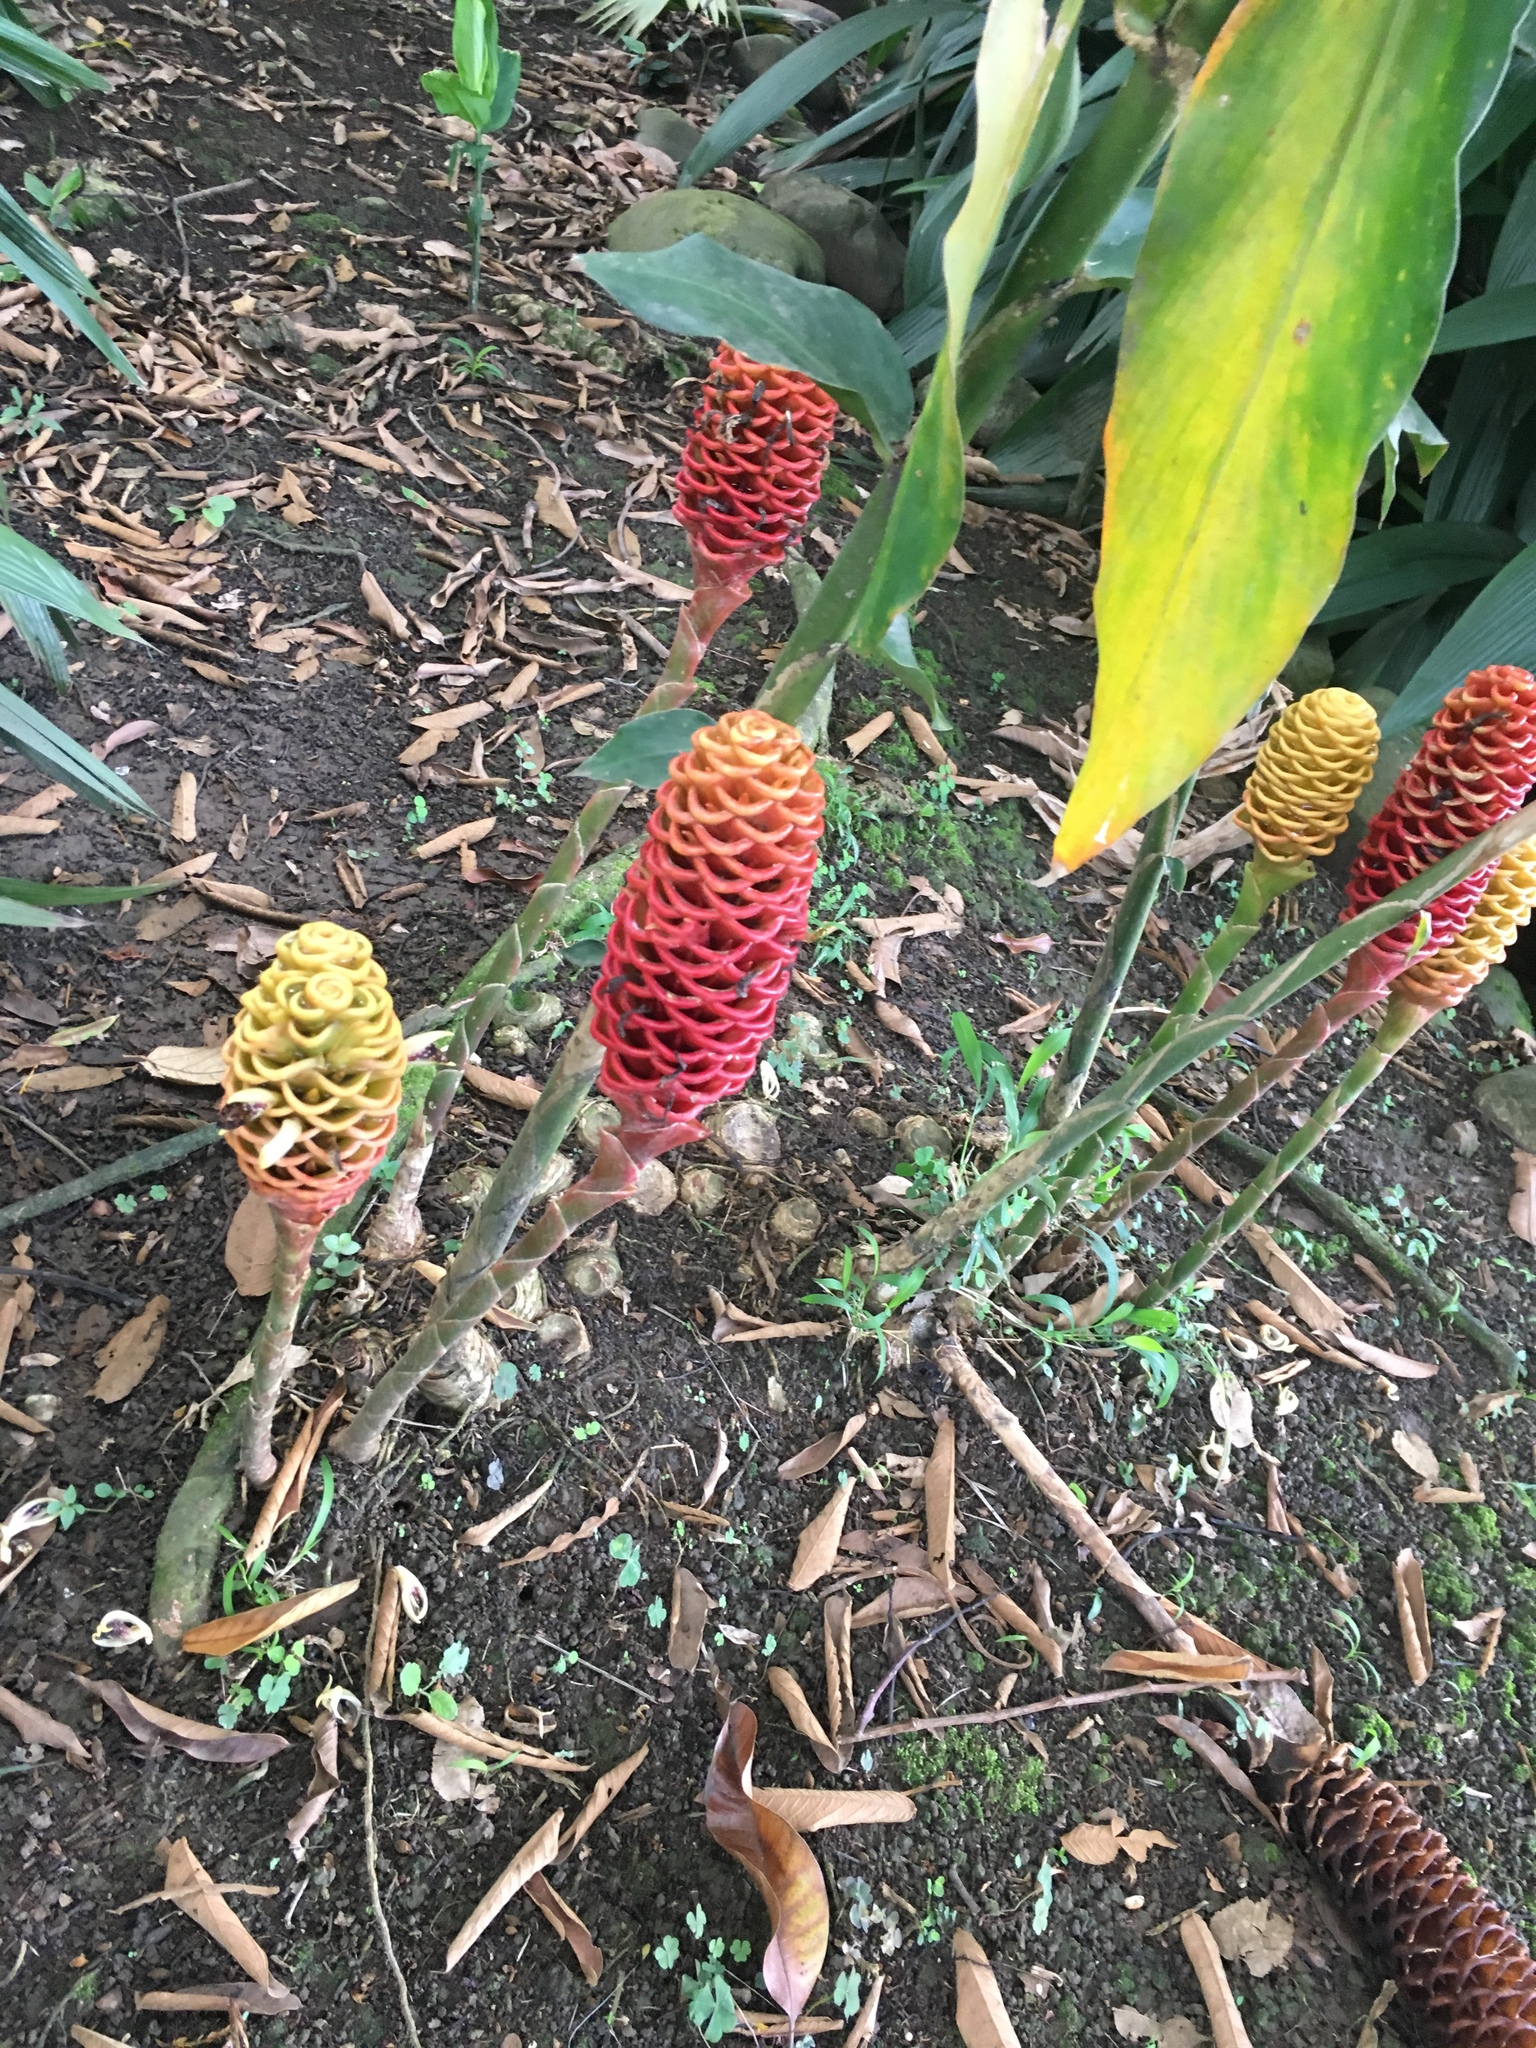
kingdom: Plantae
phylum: Tracheophyta
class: Liliopsida
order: Zingiberales
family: Zingiberaceae
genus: Zingiber
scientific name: Zingiber spectabile
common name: Beehive ginger
